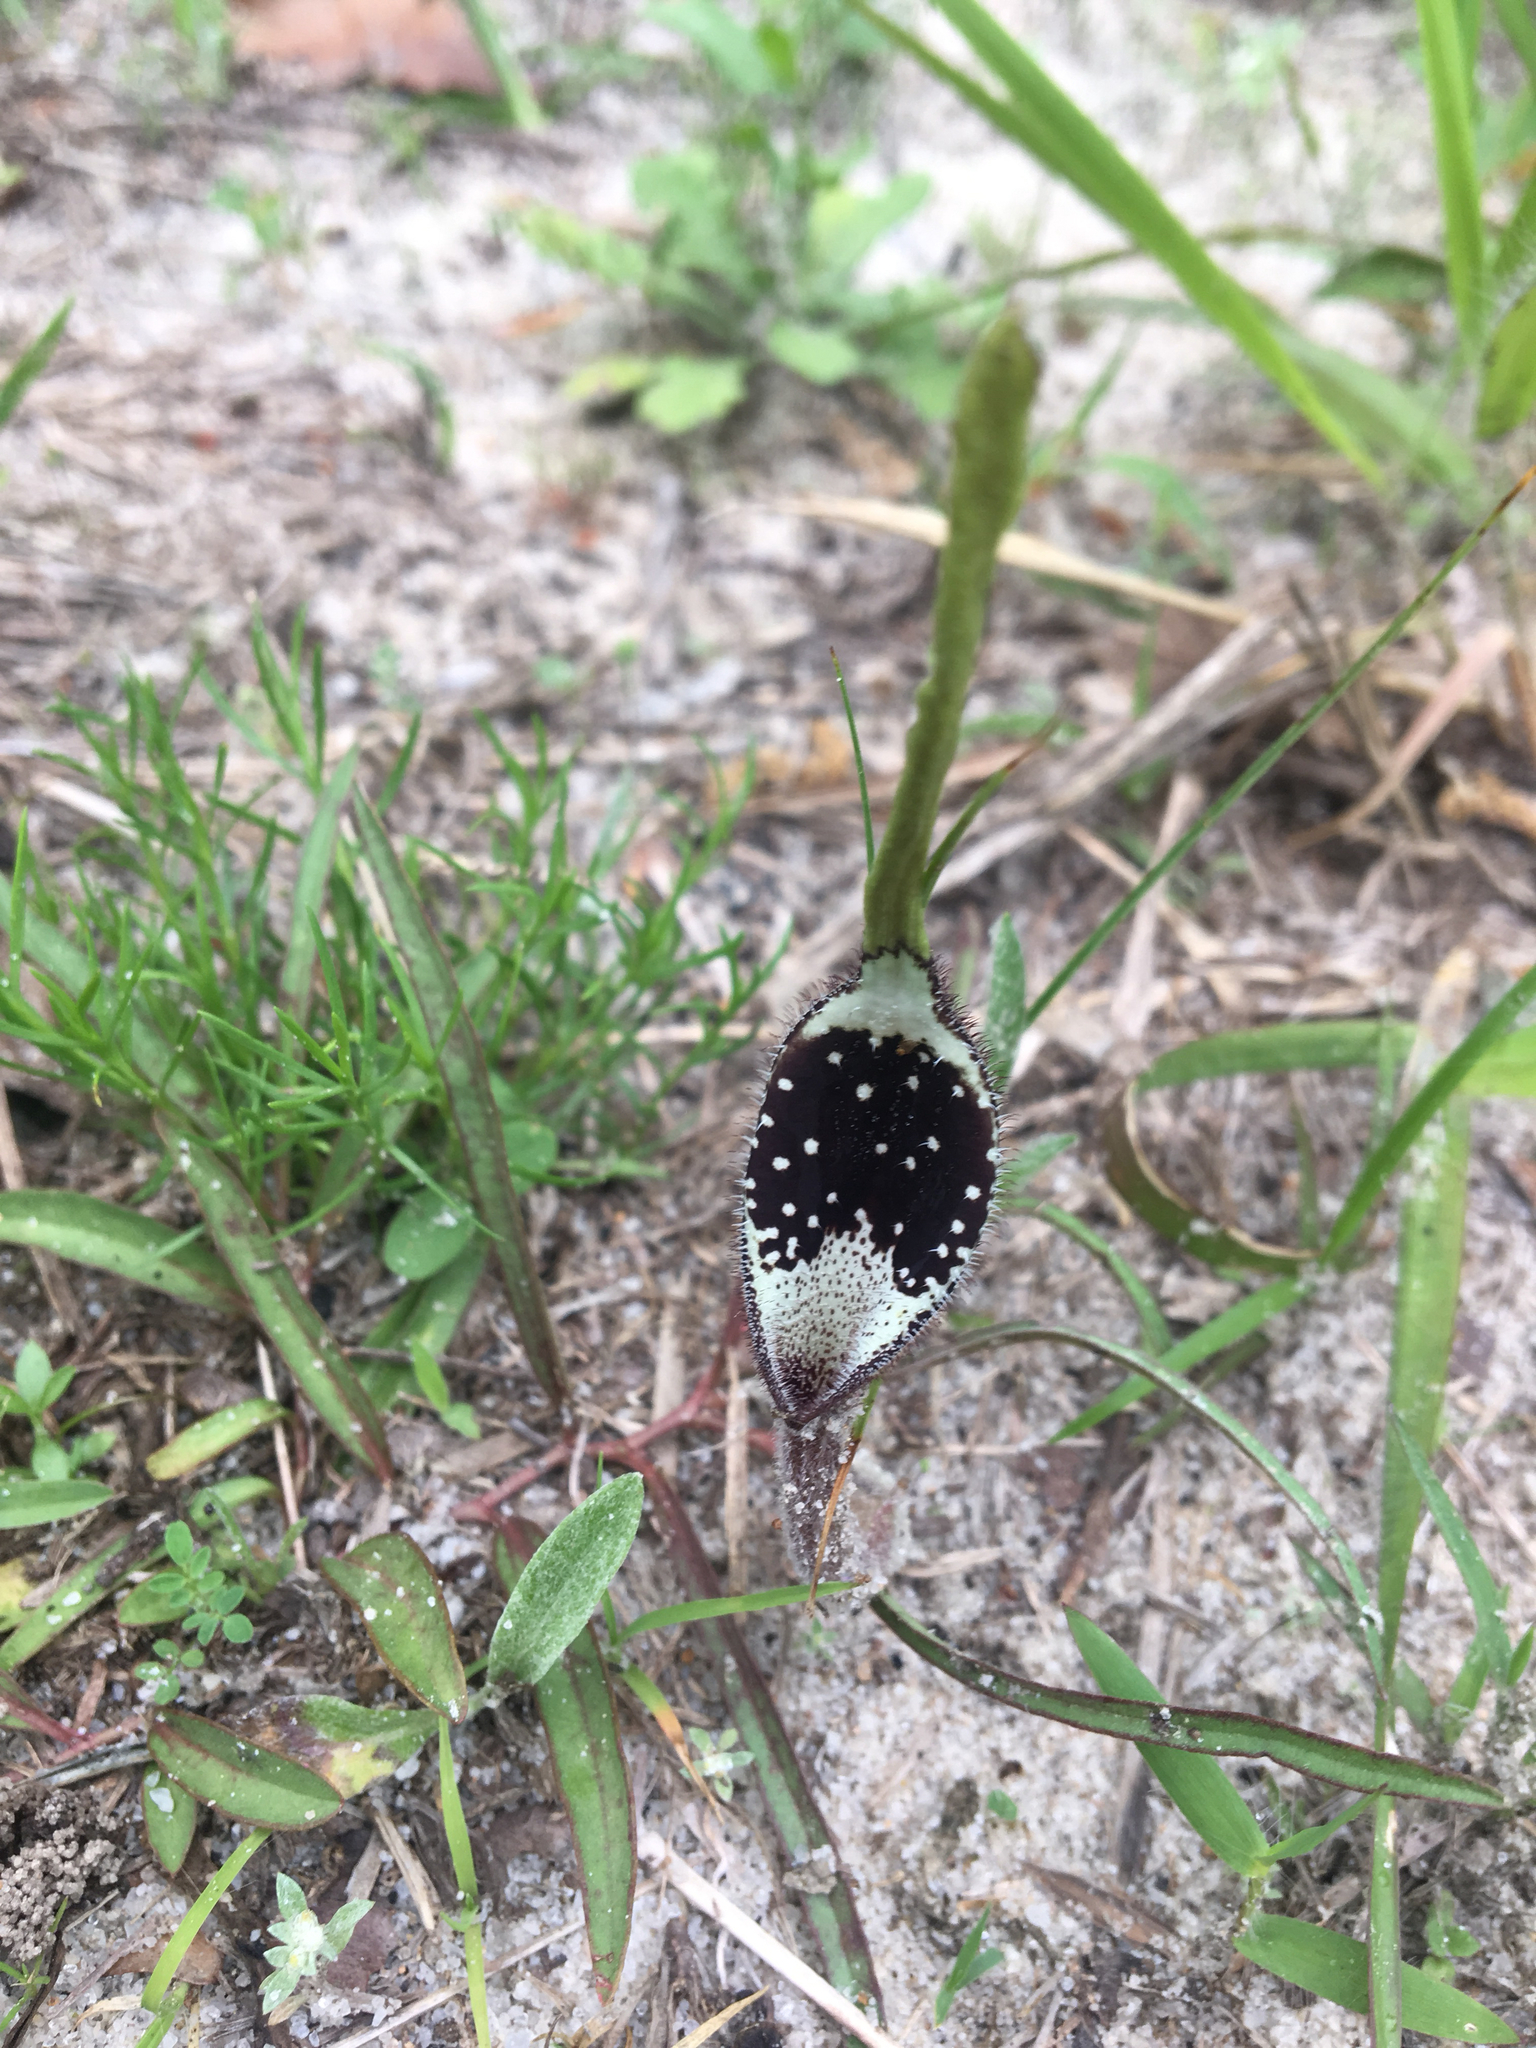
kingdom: Plantae
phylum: Tracheophyta
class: Magnoliopsida
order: Piperales
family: Aristolochiaceae
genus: Aristolochia
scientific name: Aristolochia erecta
